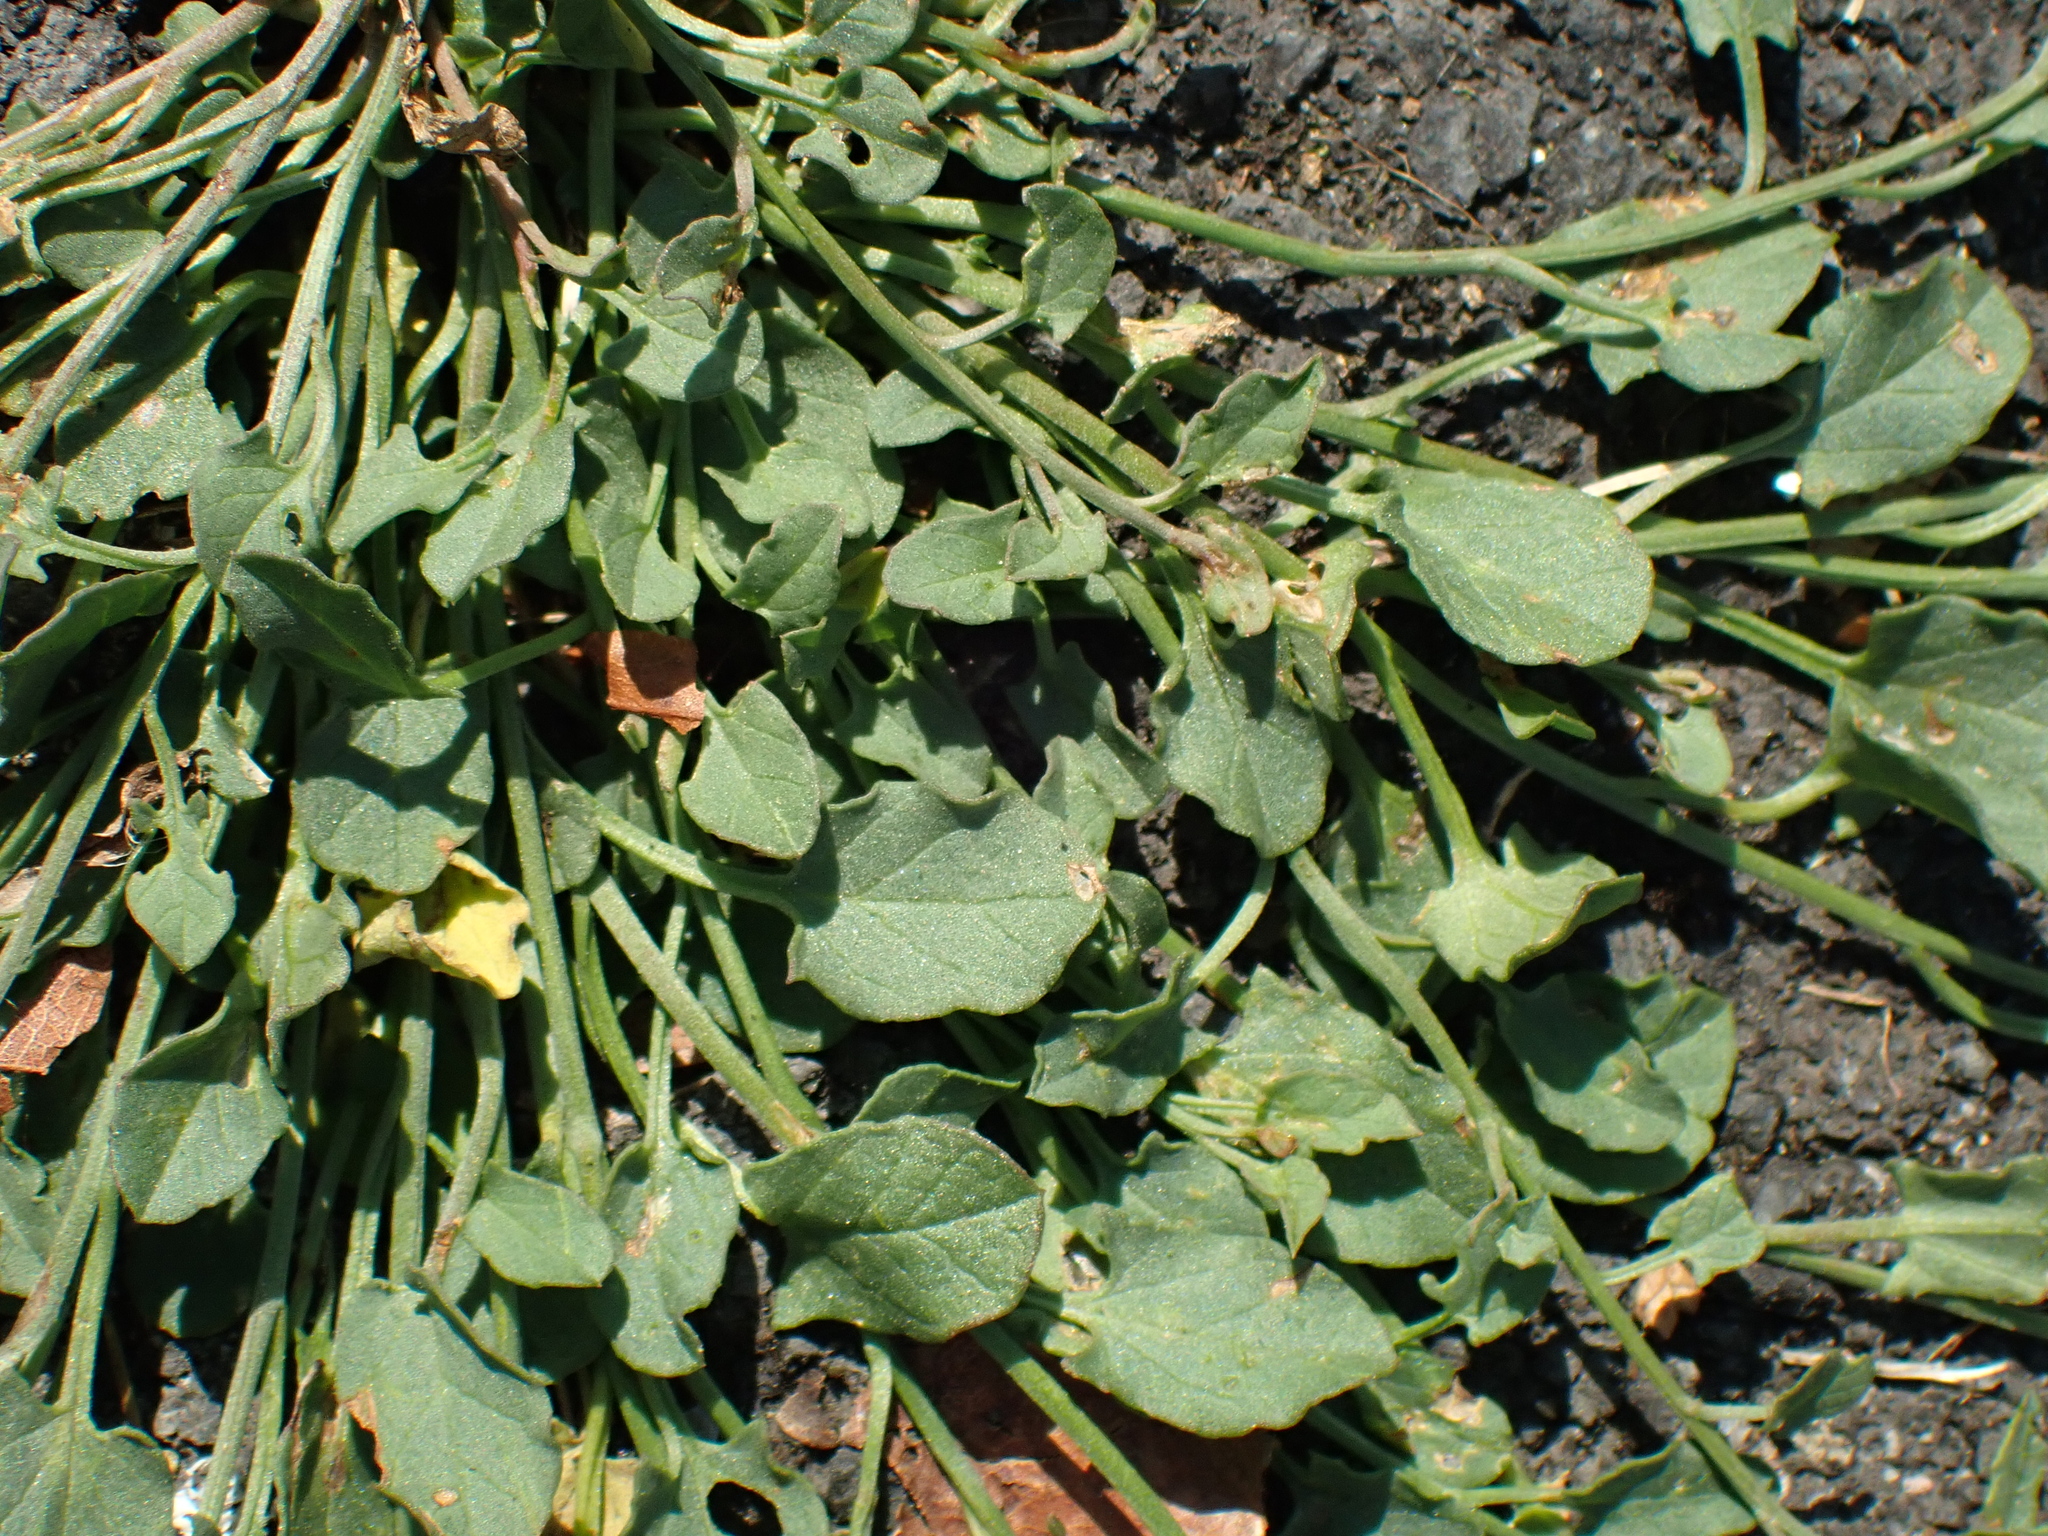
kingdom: Plantae
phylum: Tracheophyta
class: Magnoliopsida
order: Solanales
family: Convolvulaceae
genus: Convolvulus
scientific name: Convolvulus arvensis
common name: Field bindweed
